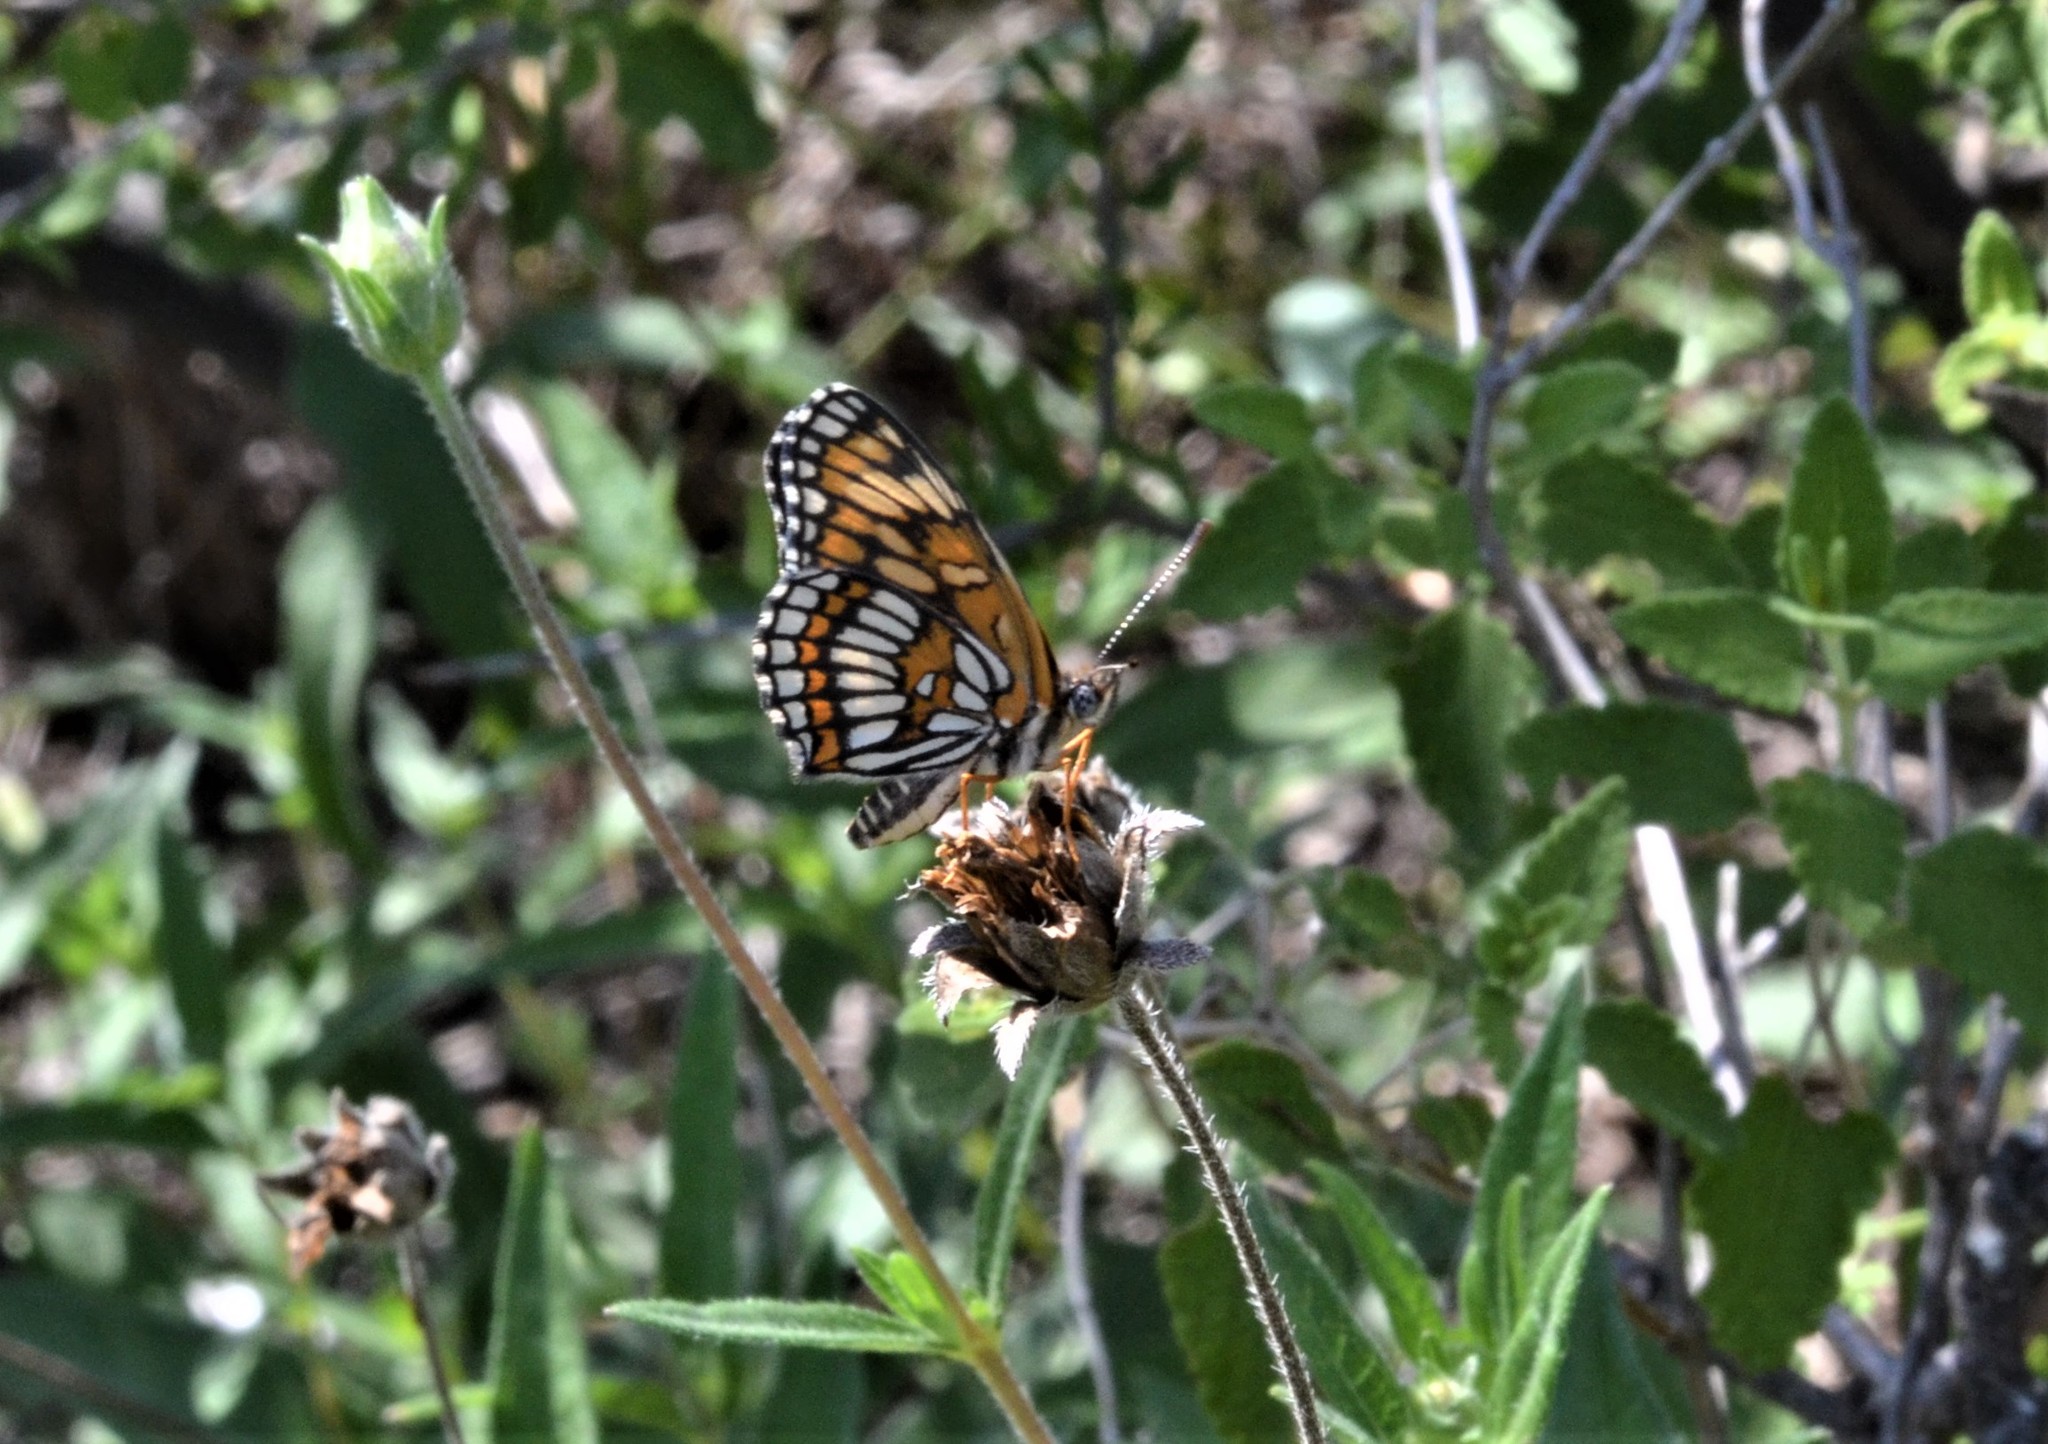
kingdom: Animalia
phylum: Arthropoda
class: Insecta
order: Lepidoptera
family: Nymphalidae
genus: Thessalia
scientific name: Thessalia theona
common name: Nymphalid moth
